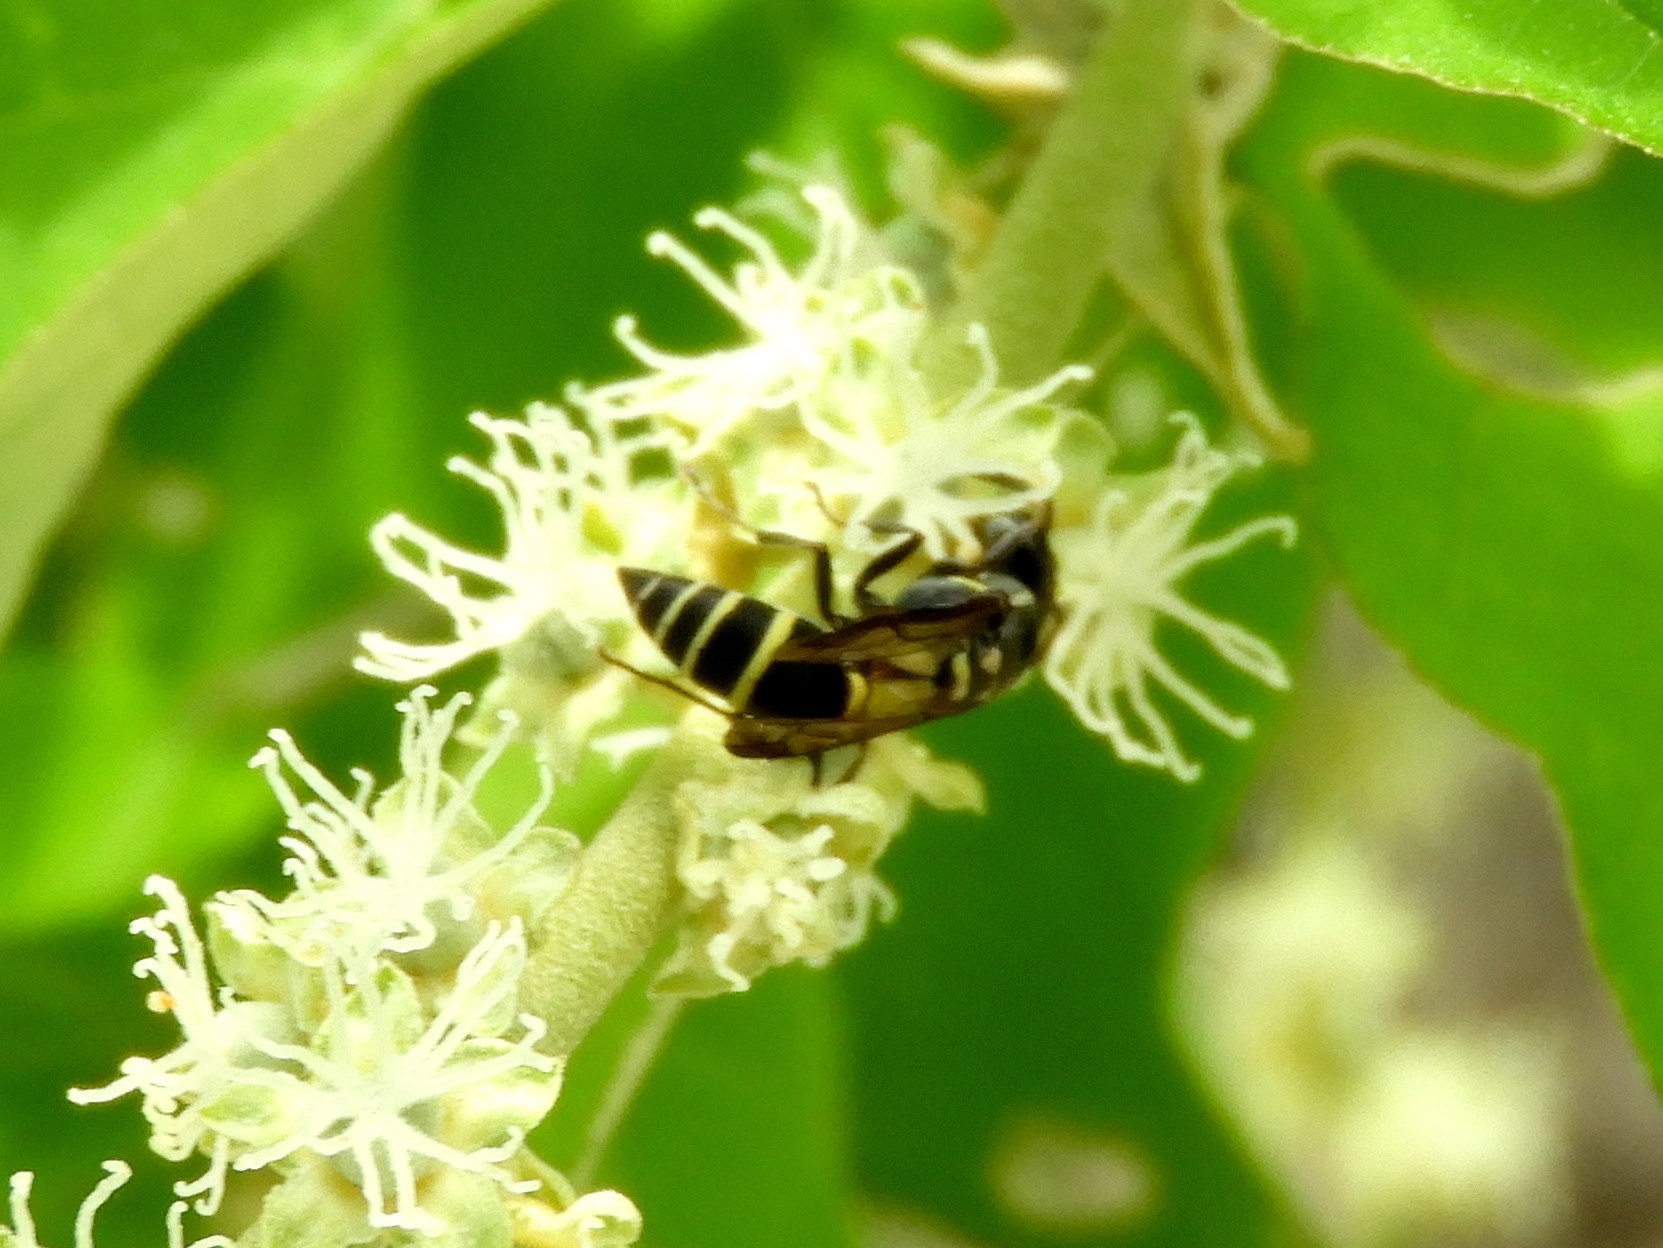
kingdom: Animalia
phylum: Arthropoda
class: Insecta
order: Hymenoptera
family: Vespidae
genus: Myrapetra
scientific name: Myrapetra
